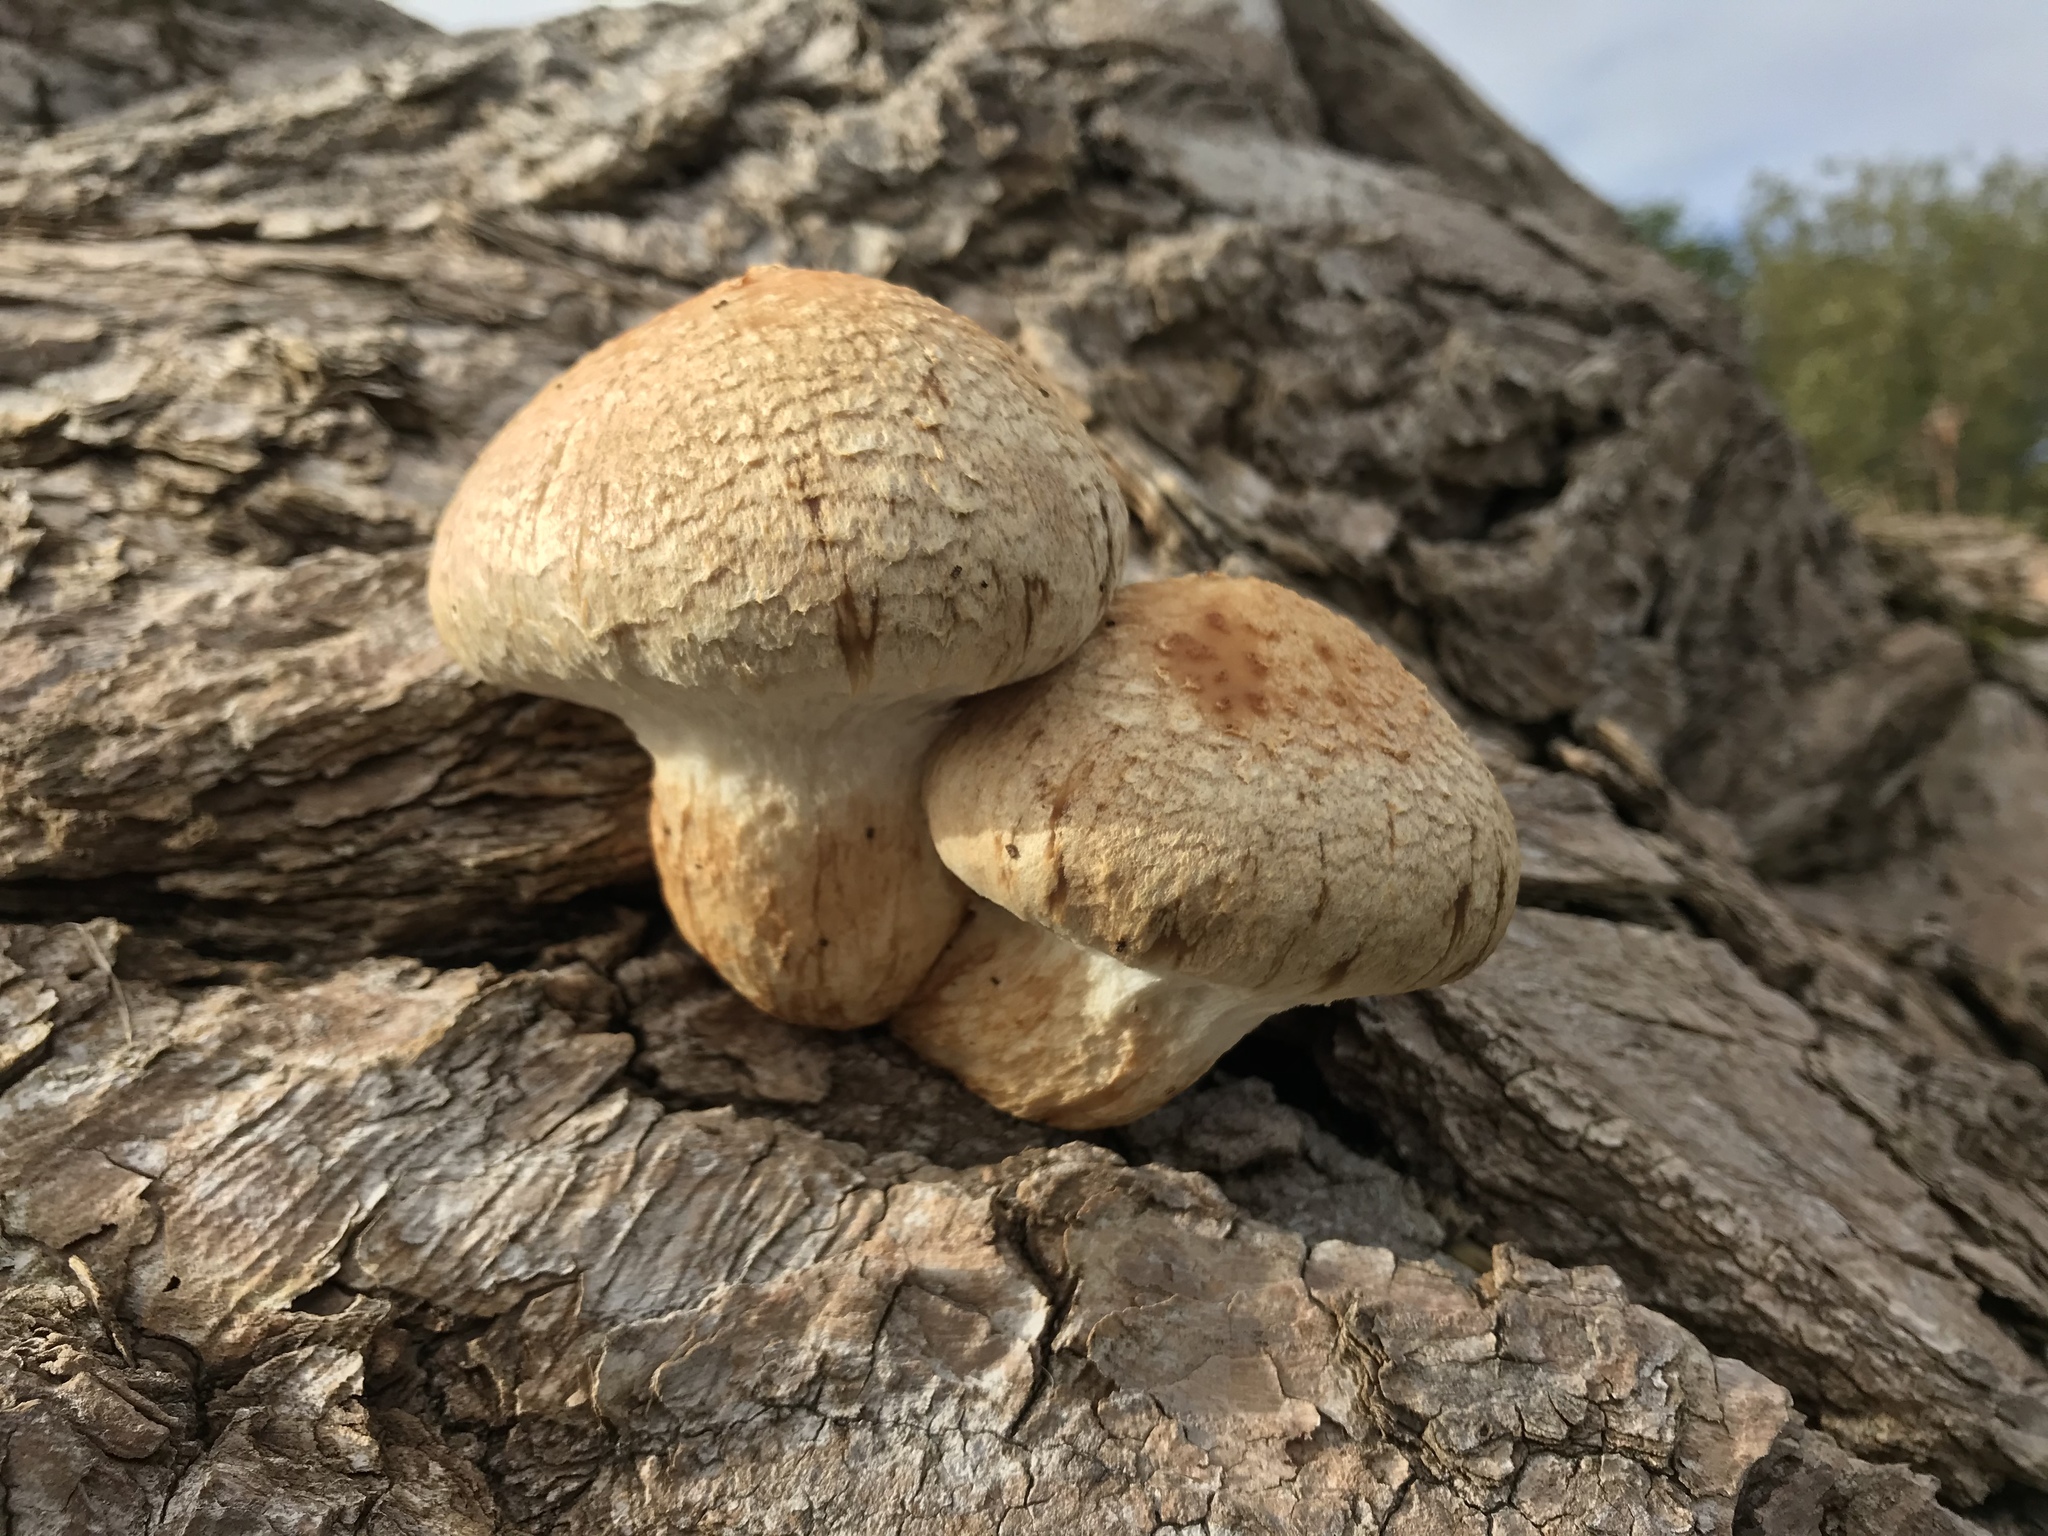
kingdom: Fungi
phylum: Basidiomycota
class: Agaricomycetes
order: Agaricales
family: Strophariaceae
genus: Pholiota
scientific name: Pholiota populnea
